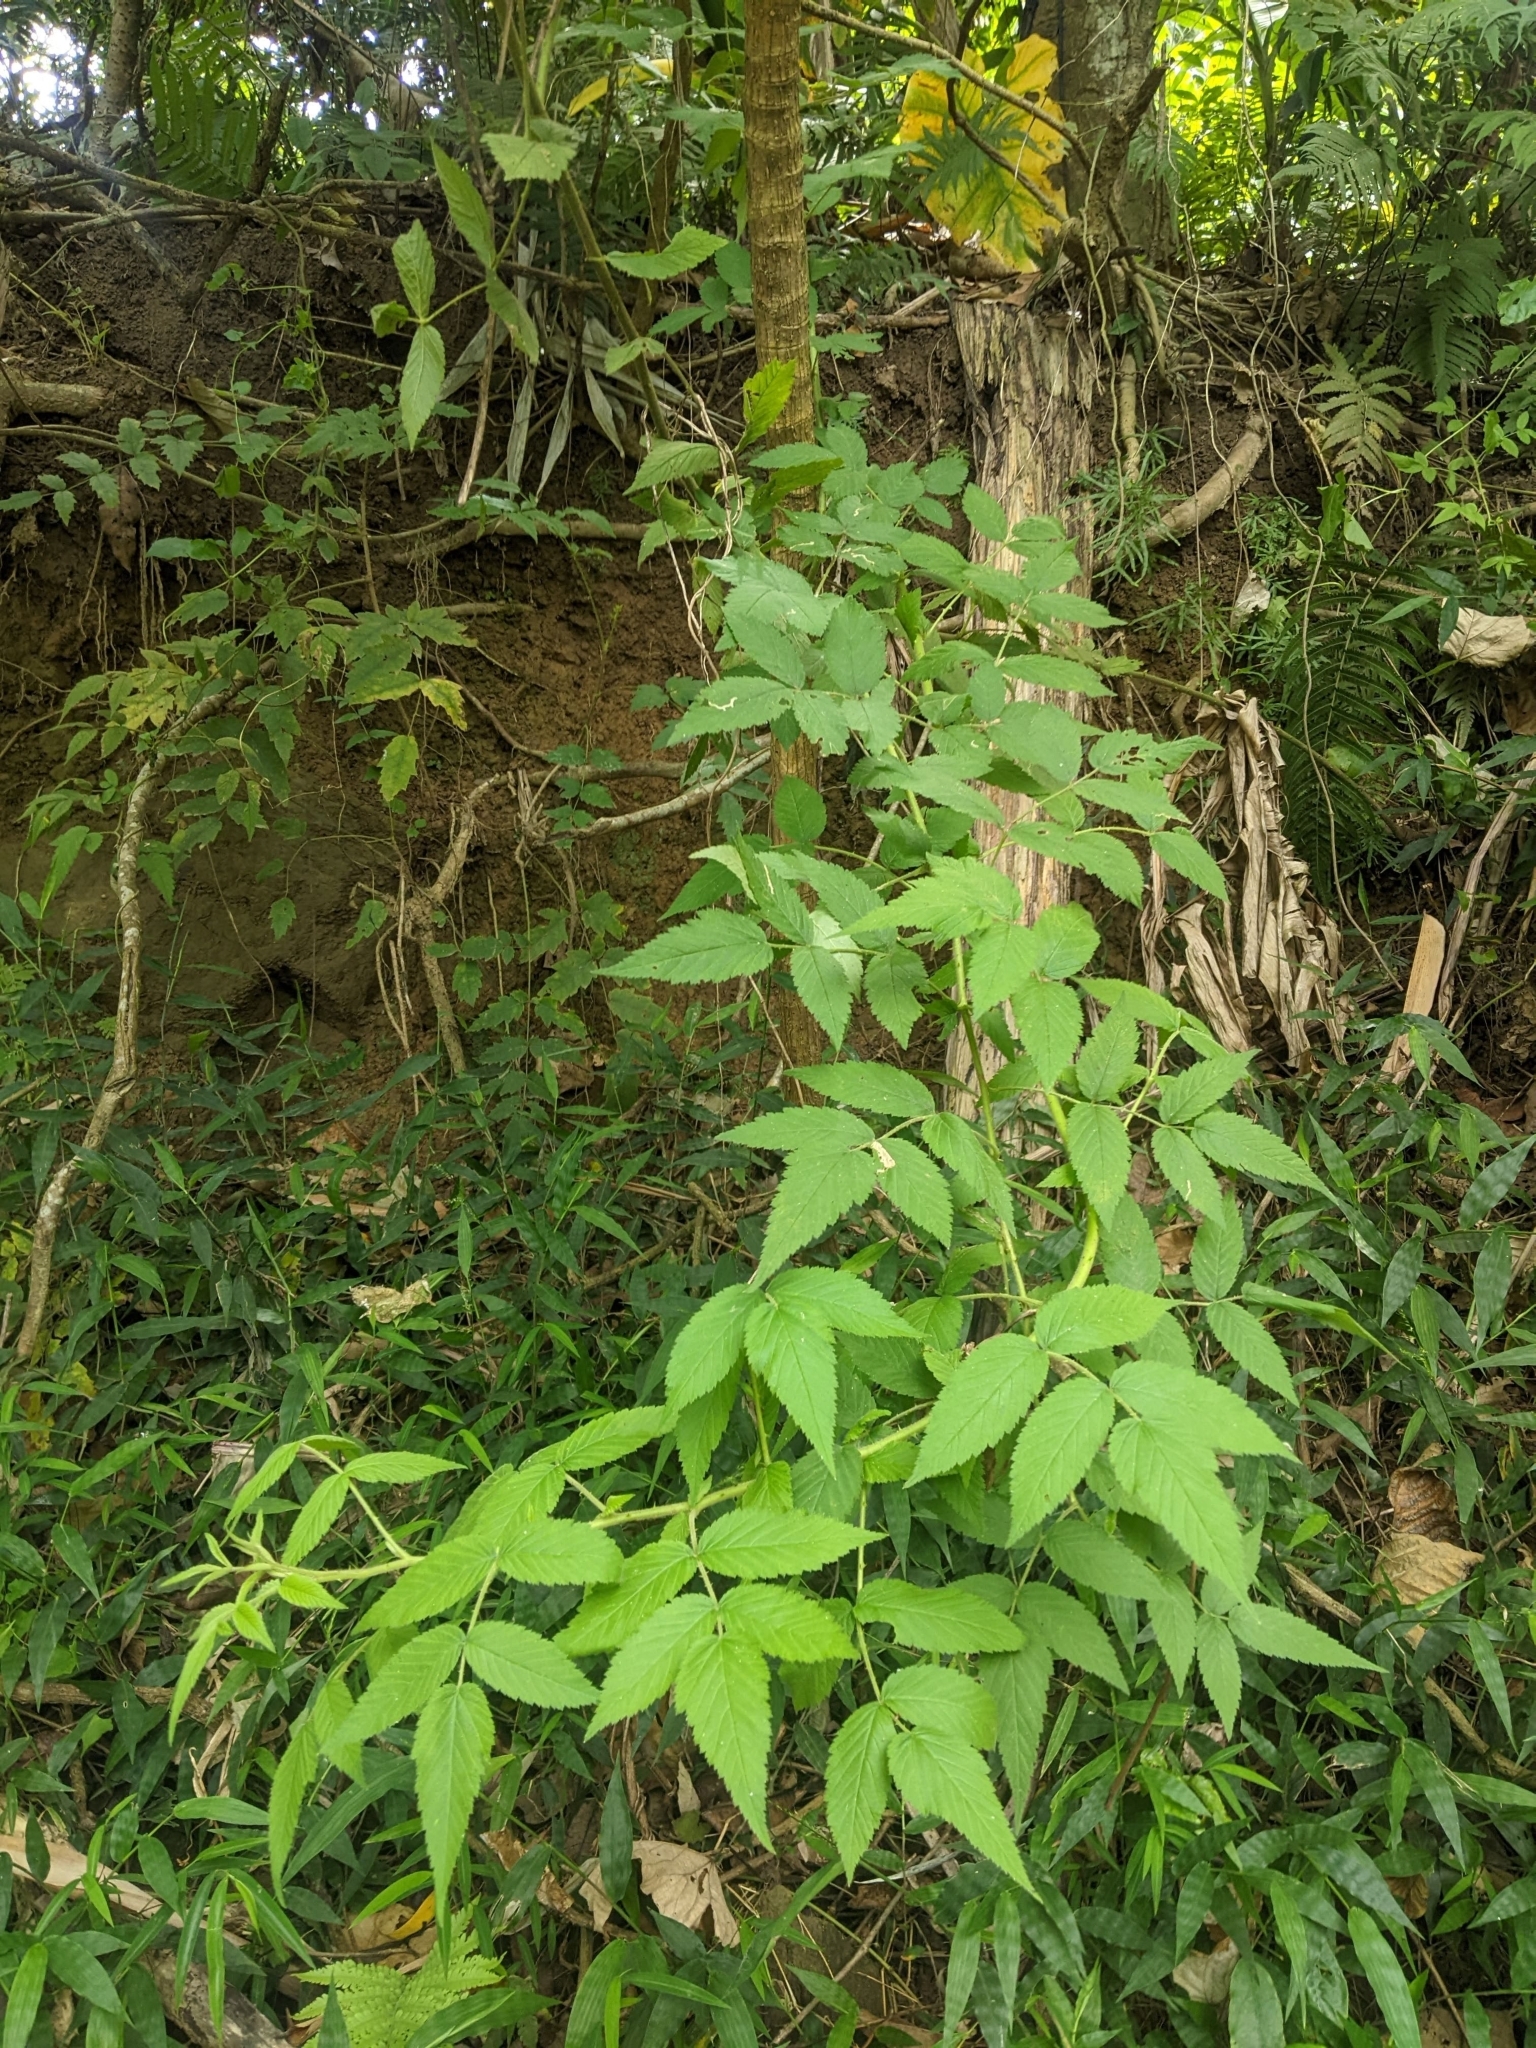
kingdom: Plantae
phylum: Tracheophyta
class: Magnoliopsida
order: Rosales
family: Rosaceae
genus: Rubus
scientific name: Rubus croceacanthus
